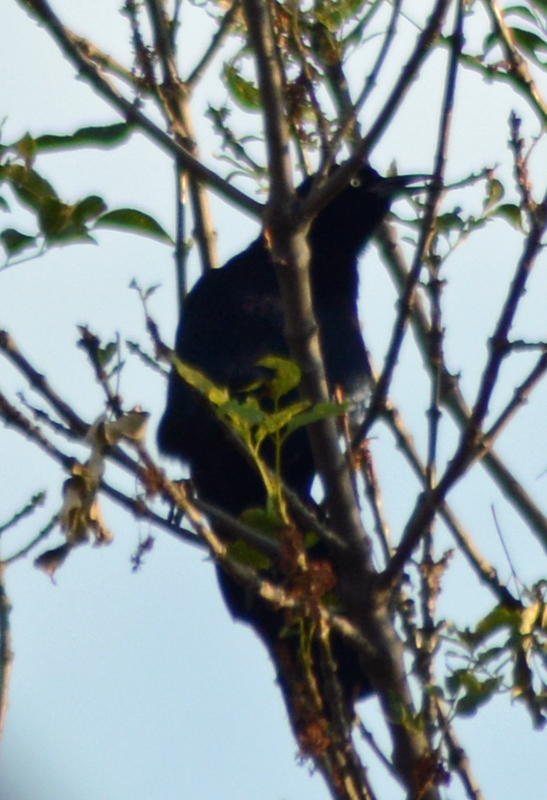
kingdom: Animalia
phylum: Chordata
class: Aves
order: Passeriformes
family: Icteridae
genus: Quiscalus
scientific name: Quiscalus mexicanus
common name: Great-tailed grackle
